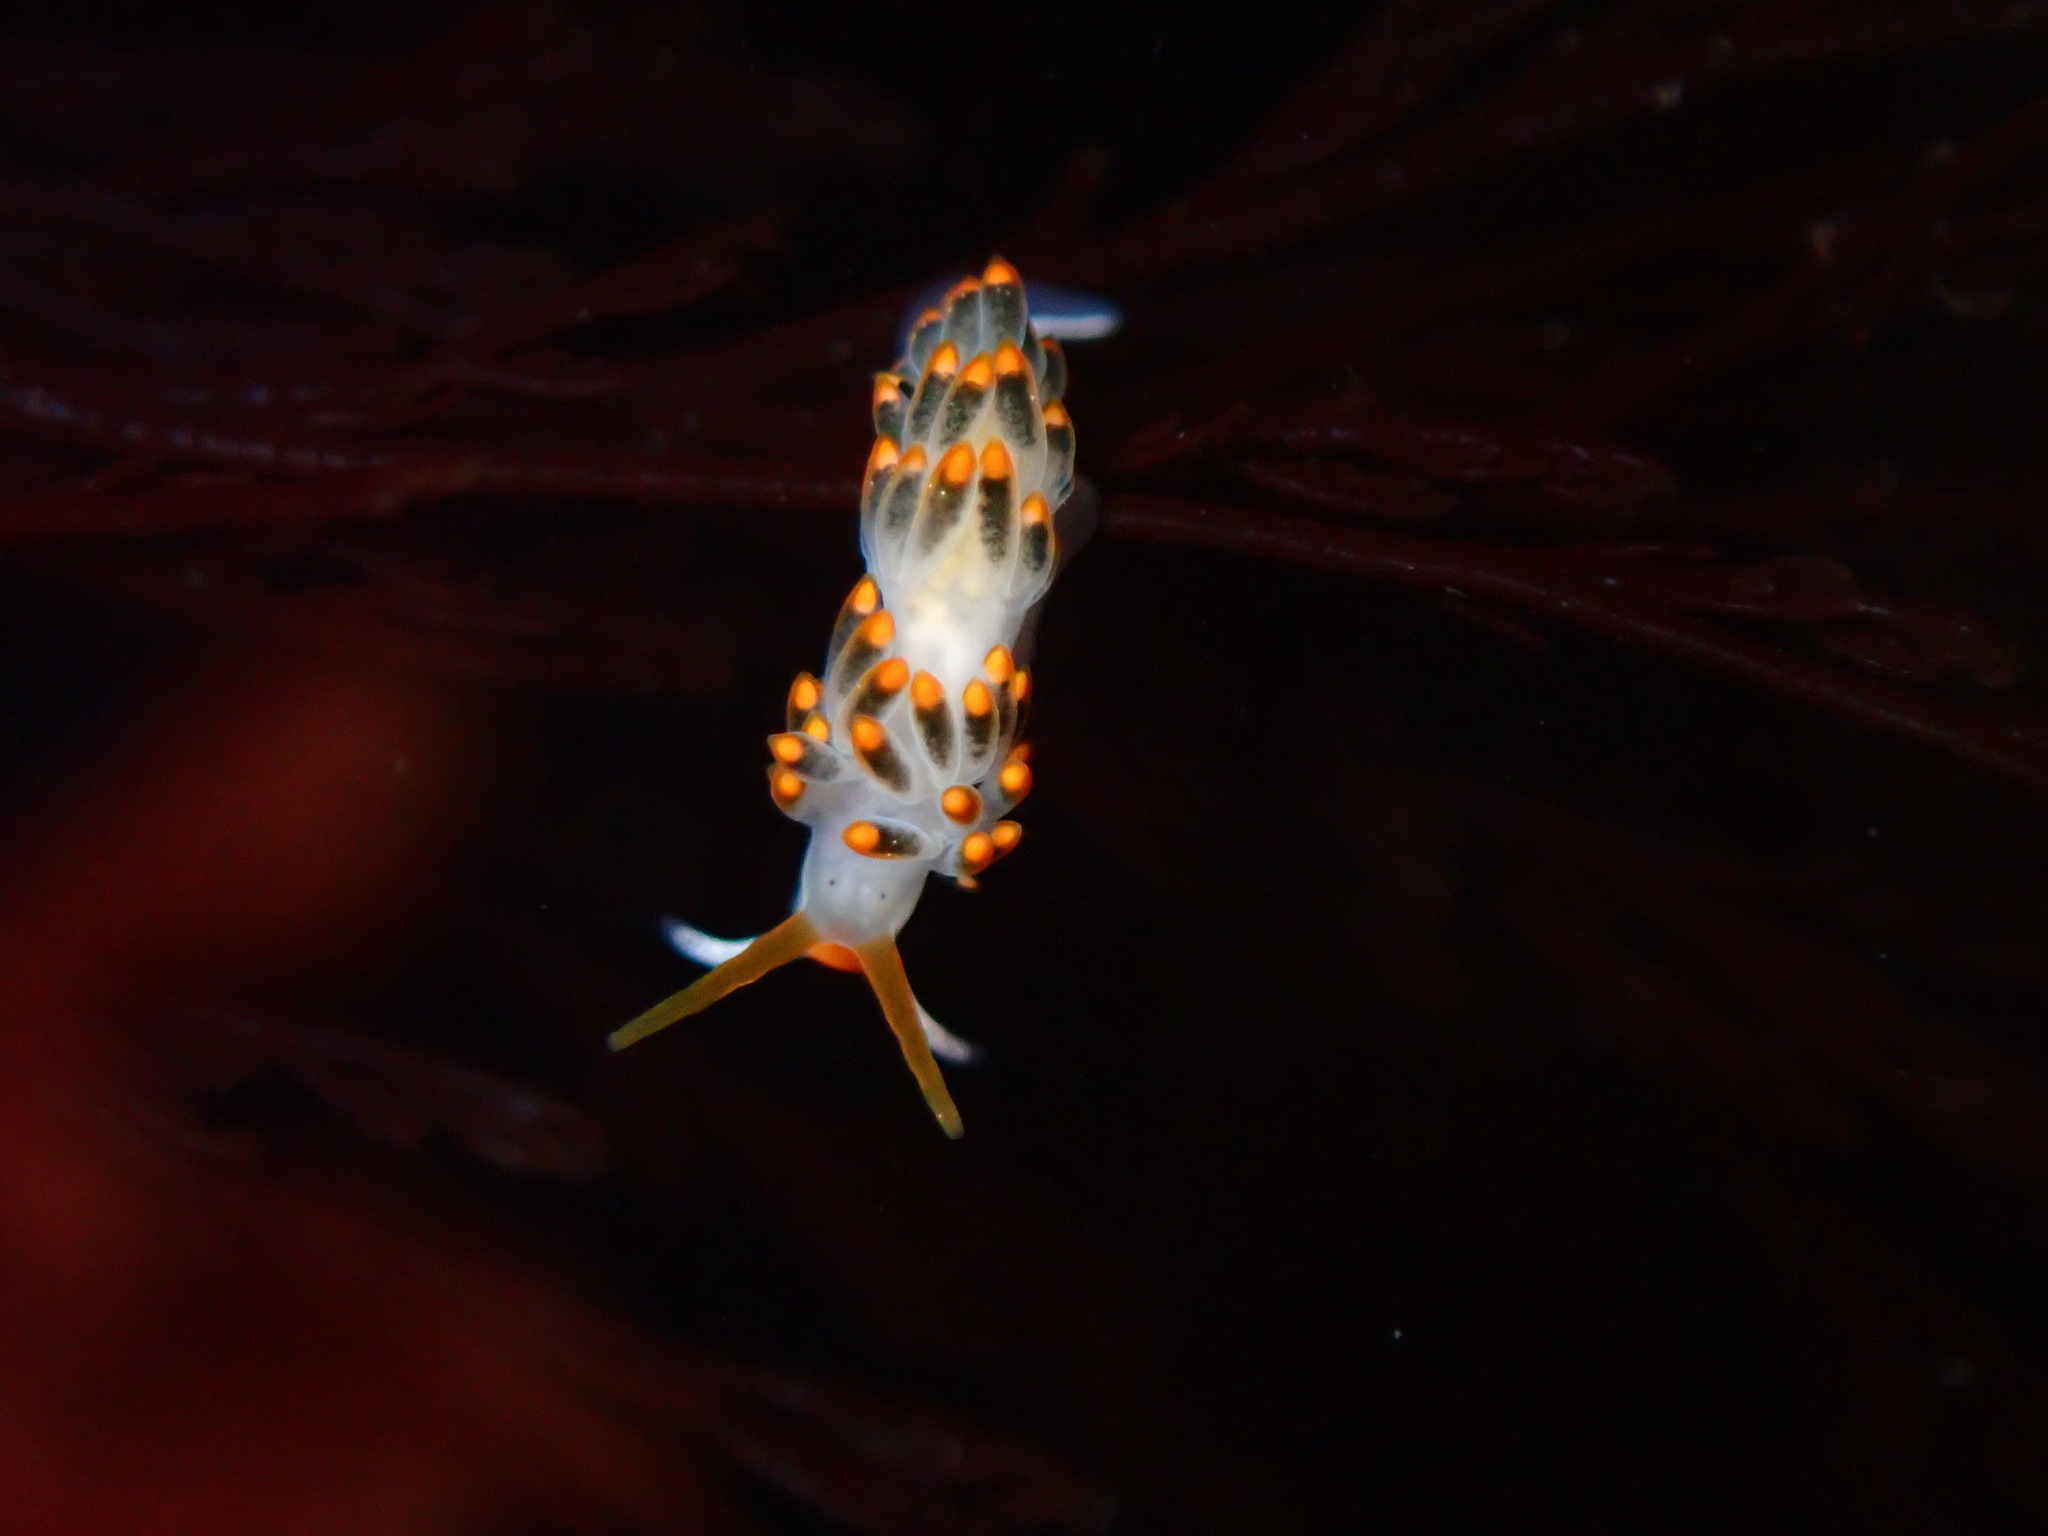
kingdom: Animalia
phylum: Mollusca
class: Gastropoda
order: Nudibranchia
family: Trinchesiidae
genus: Diaphoreolis
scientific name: Diaphoreolis lagunae
